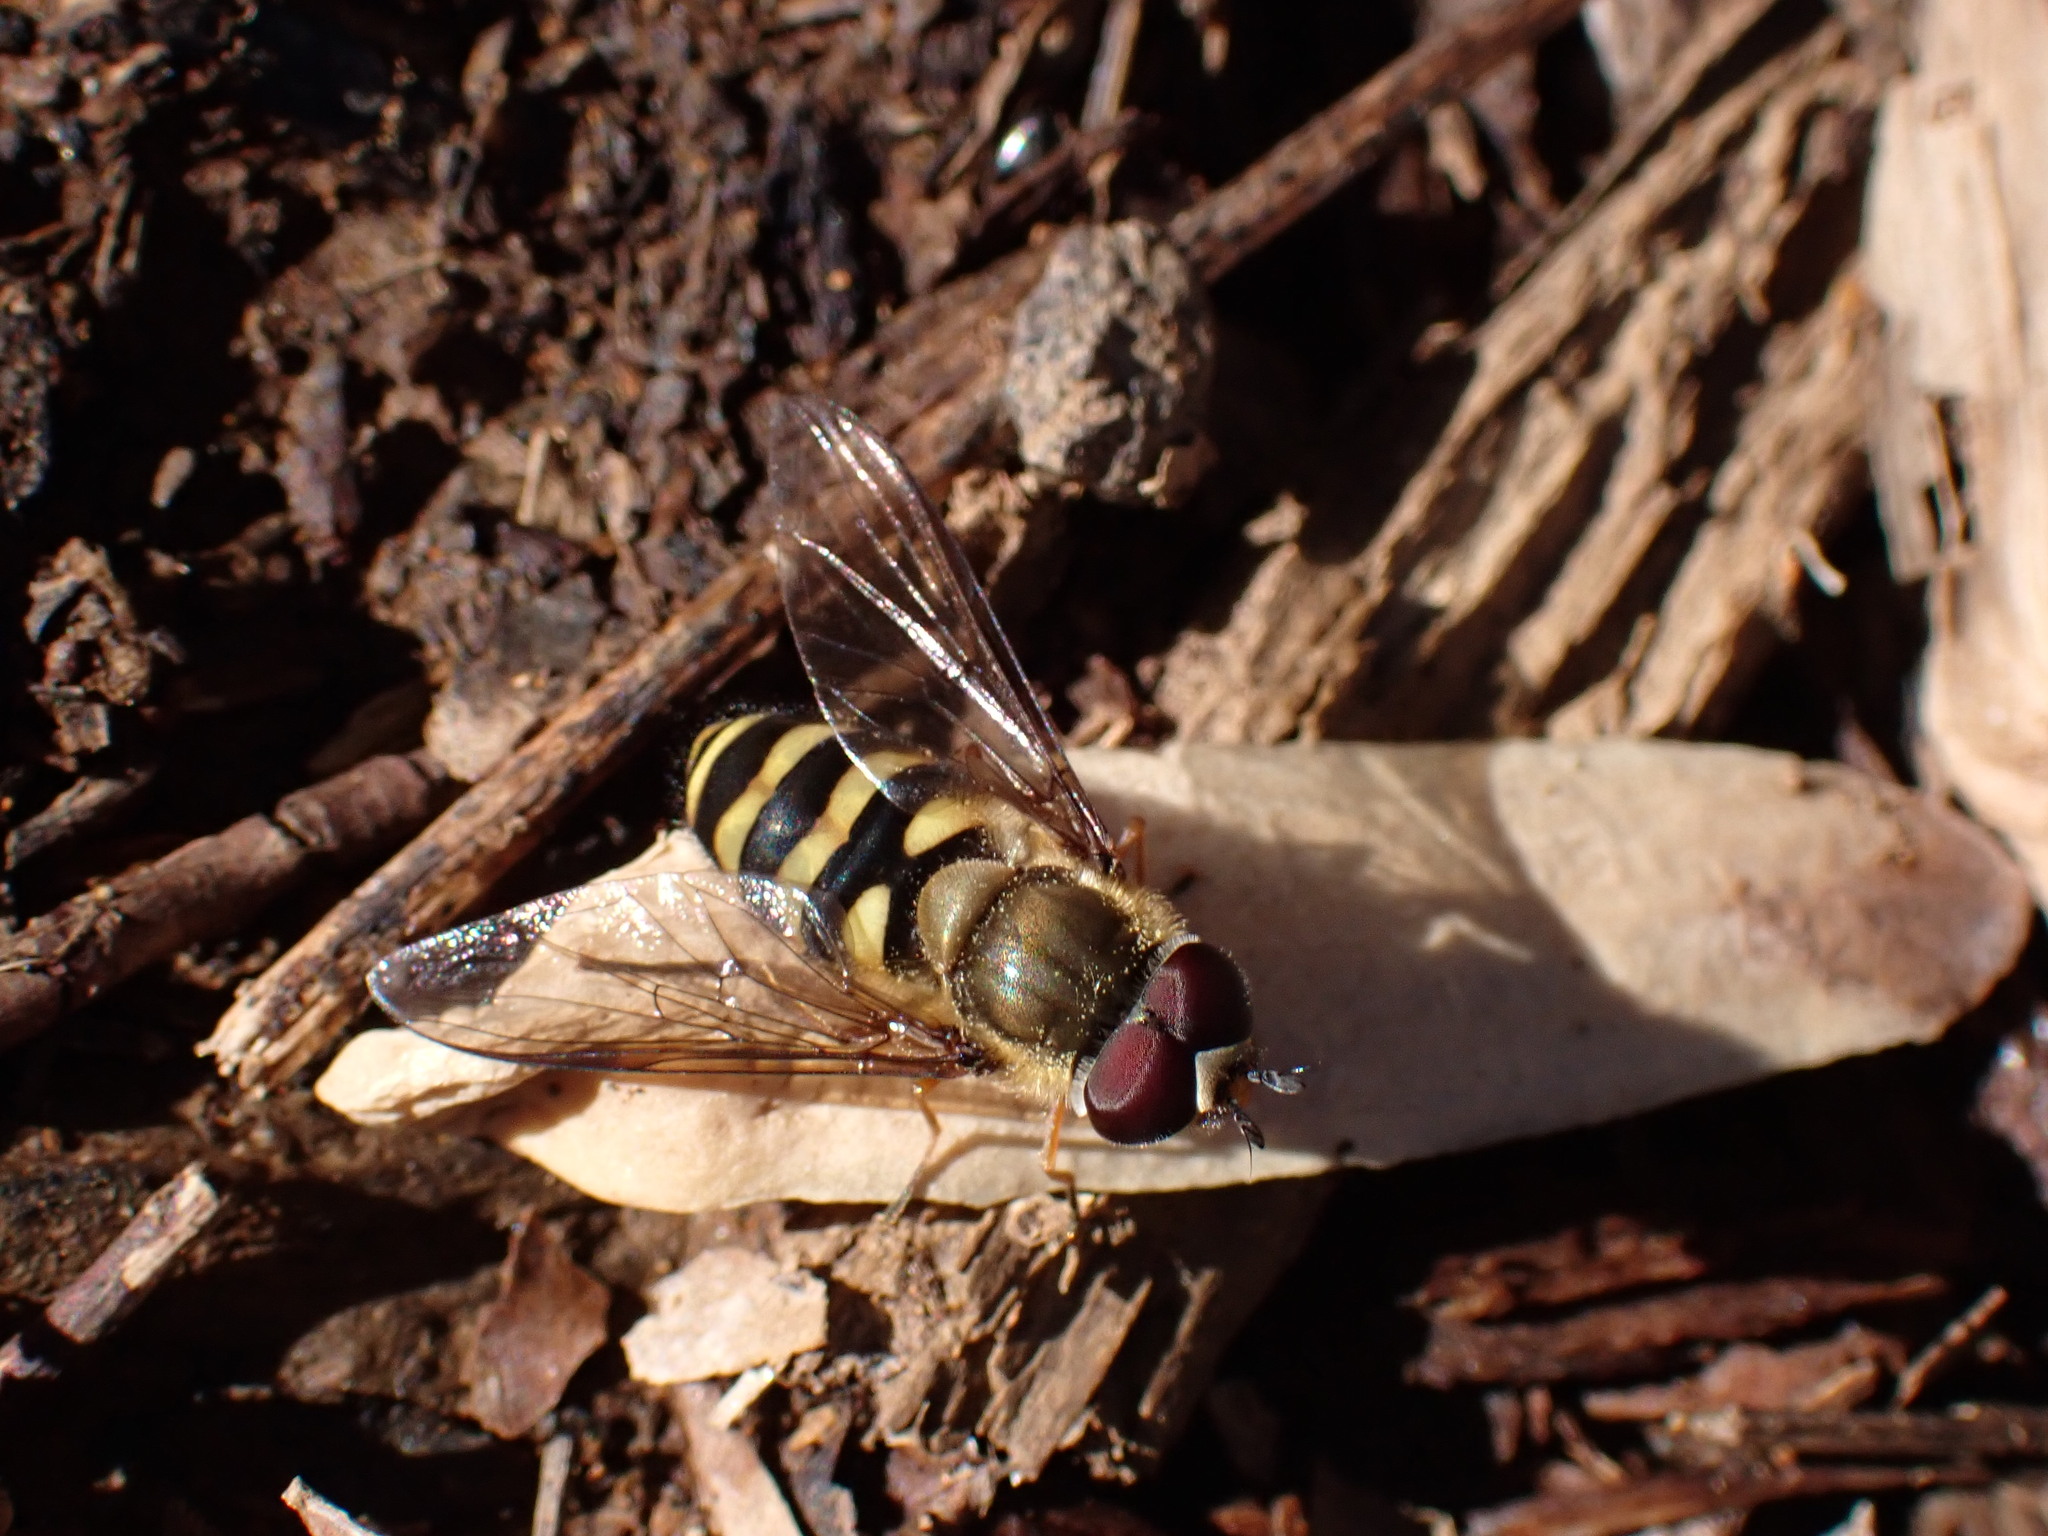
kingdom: Animalia
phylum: Arthropoda
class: Insecta
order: Diptera
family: Syrphidae
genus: Syrphus
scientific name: Syrphus torvus
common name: Hairy-eyed flower fly
